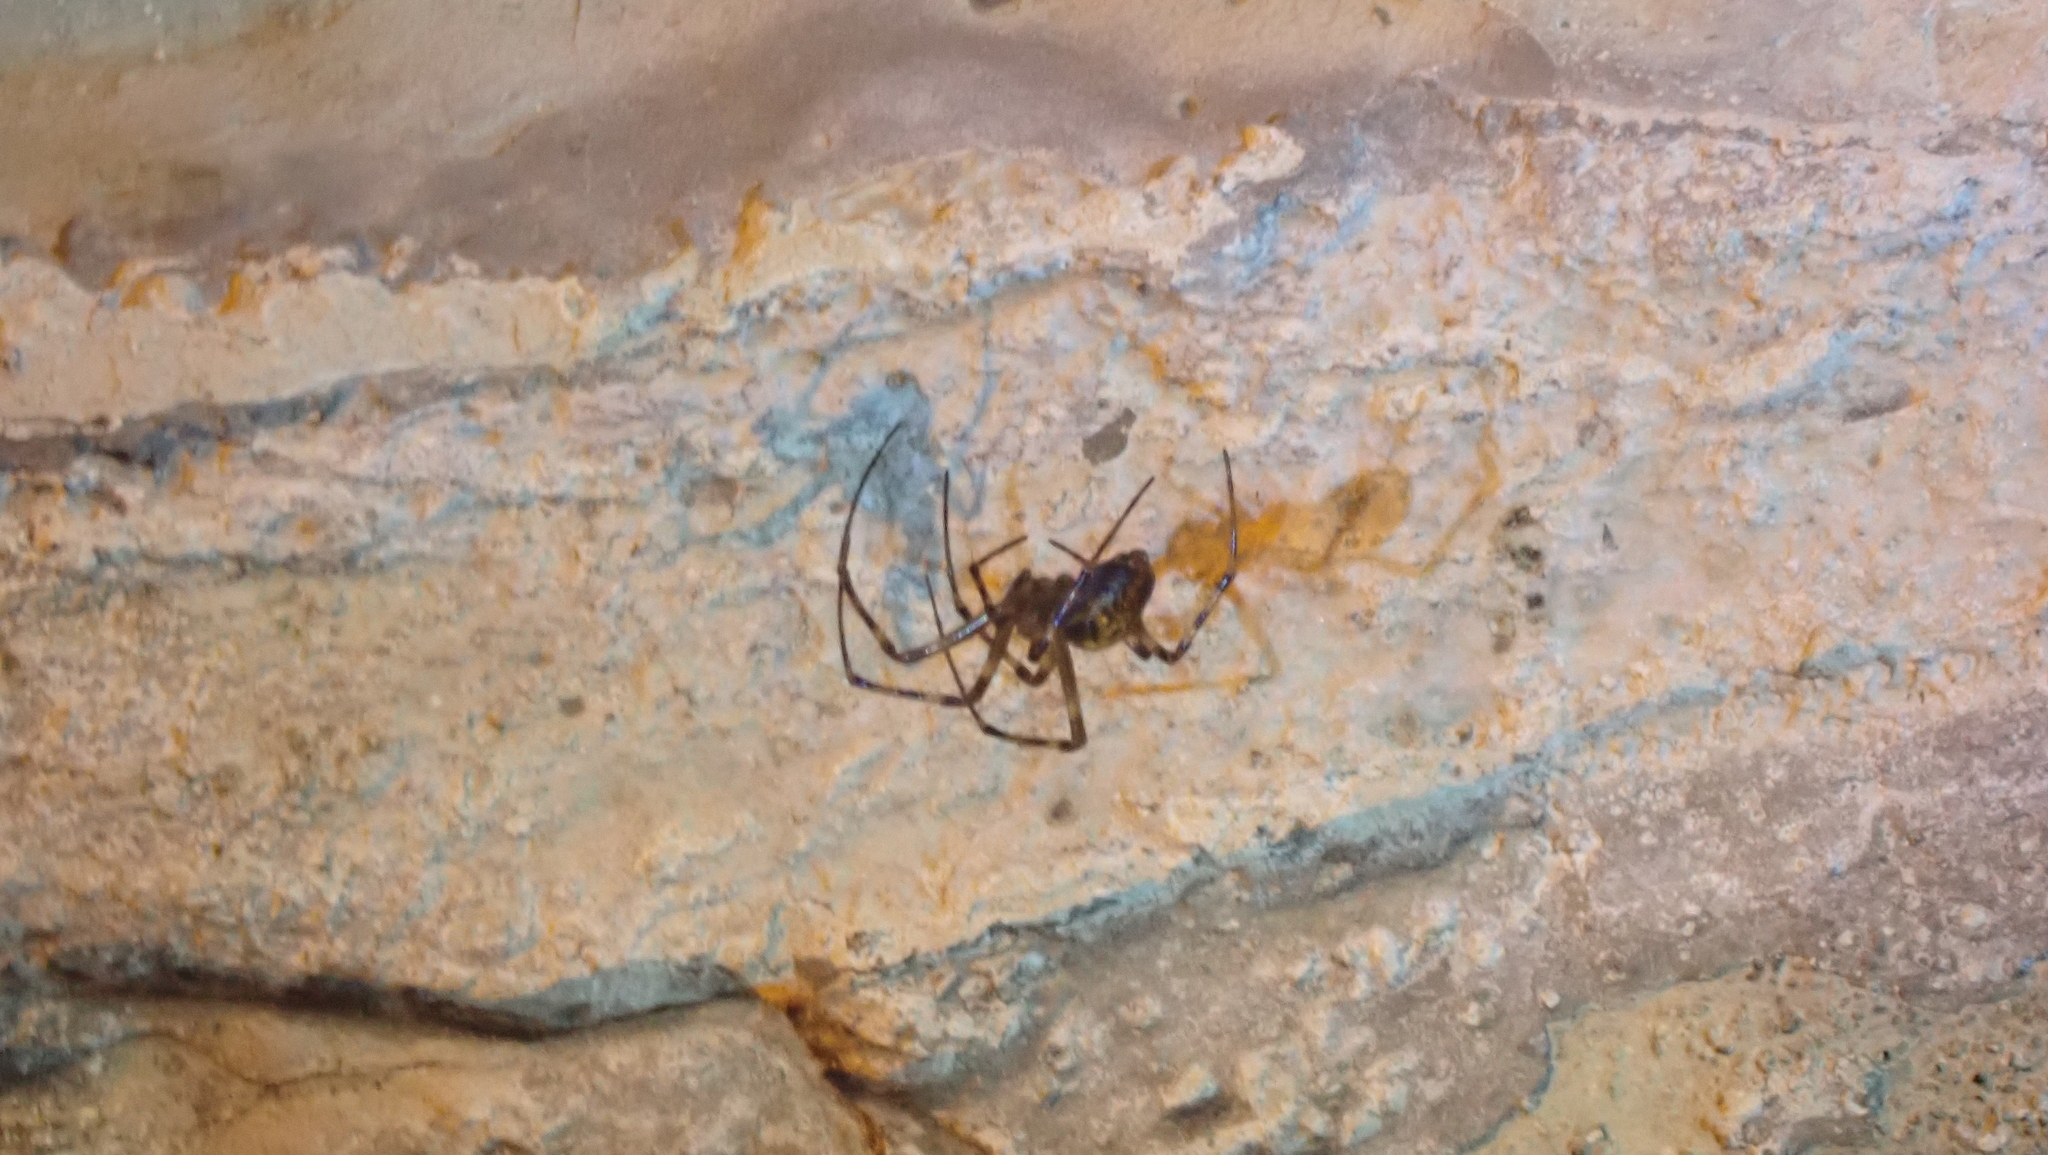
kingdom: Animalia
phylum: Arthropoda
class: Arachnida
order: Araneae
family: Tetragnathidae
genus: Meta
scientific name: Meta ovalis
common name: Eastern cave long-jawed spider
